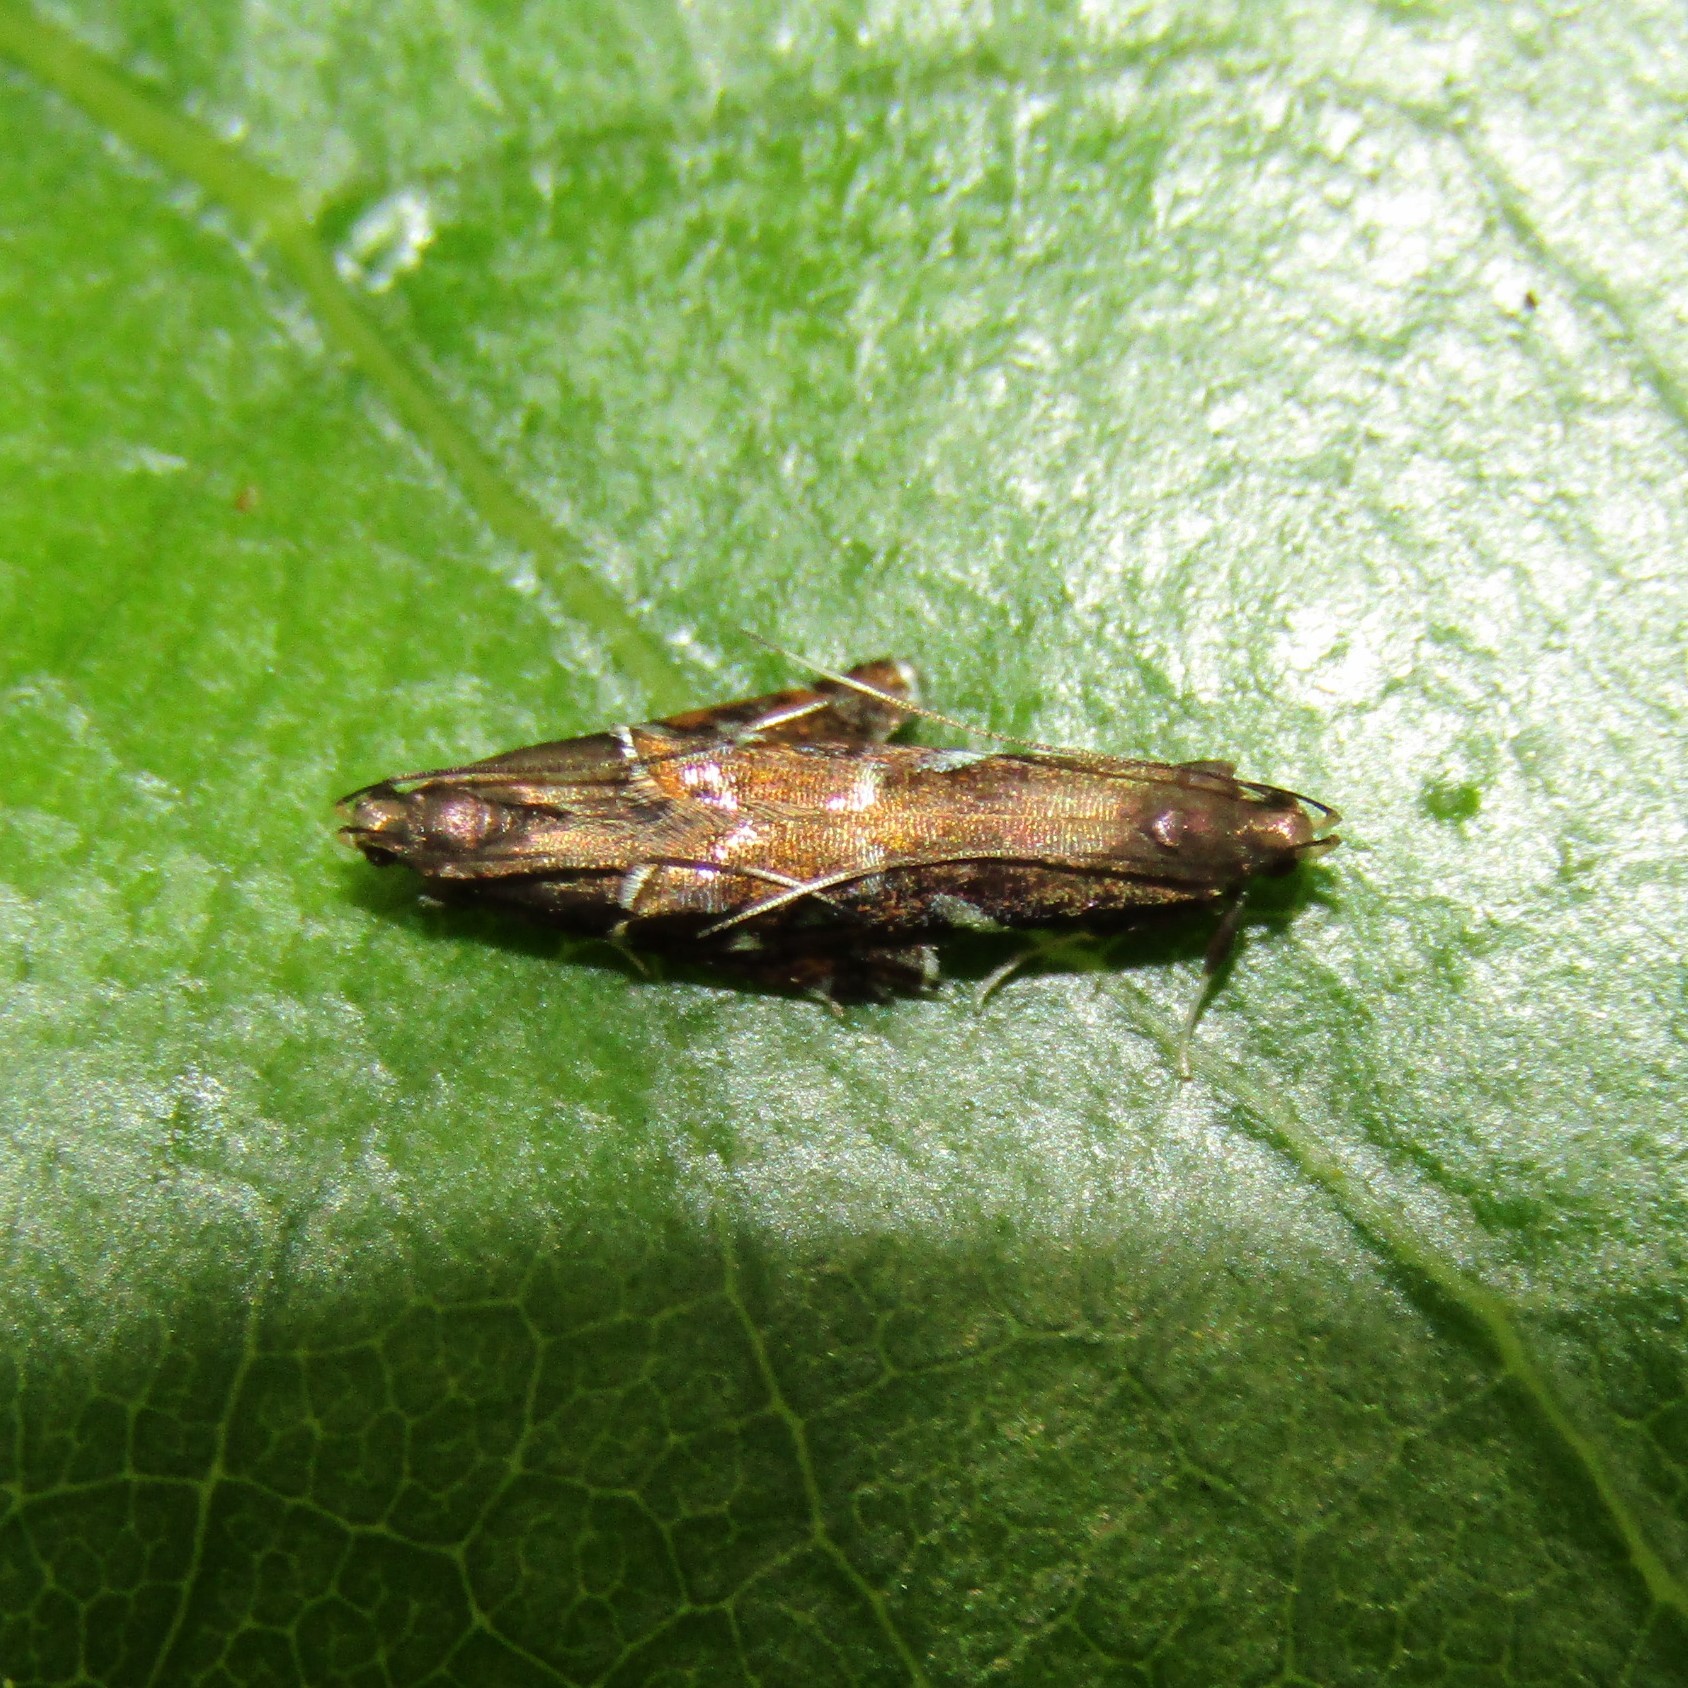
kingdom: Animalia
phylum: Arthropoda
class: Insecta
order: Lepidoptera
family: Depressariidae
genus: Compsistis
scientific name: Compsistis bifaciella
